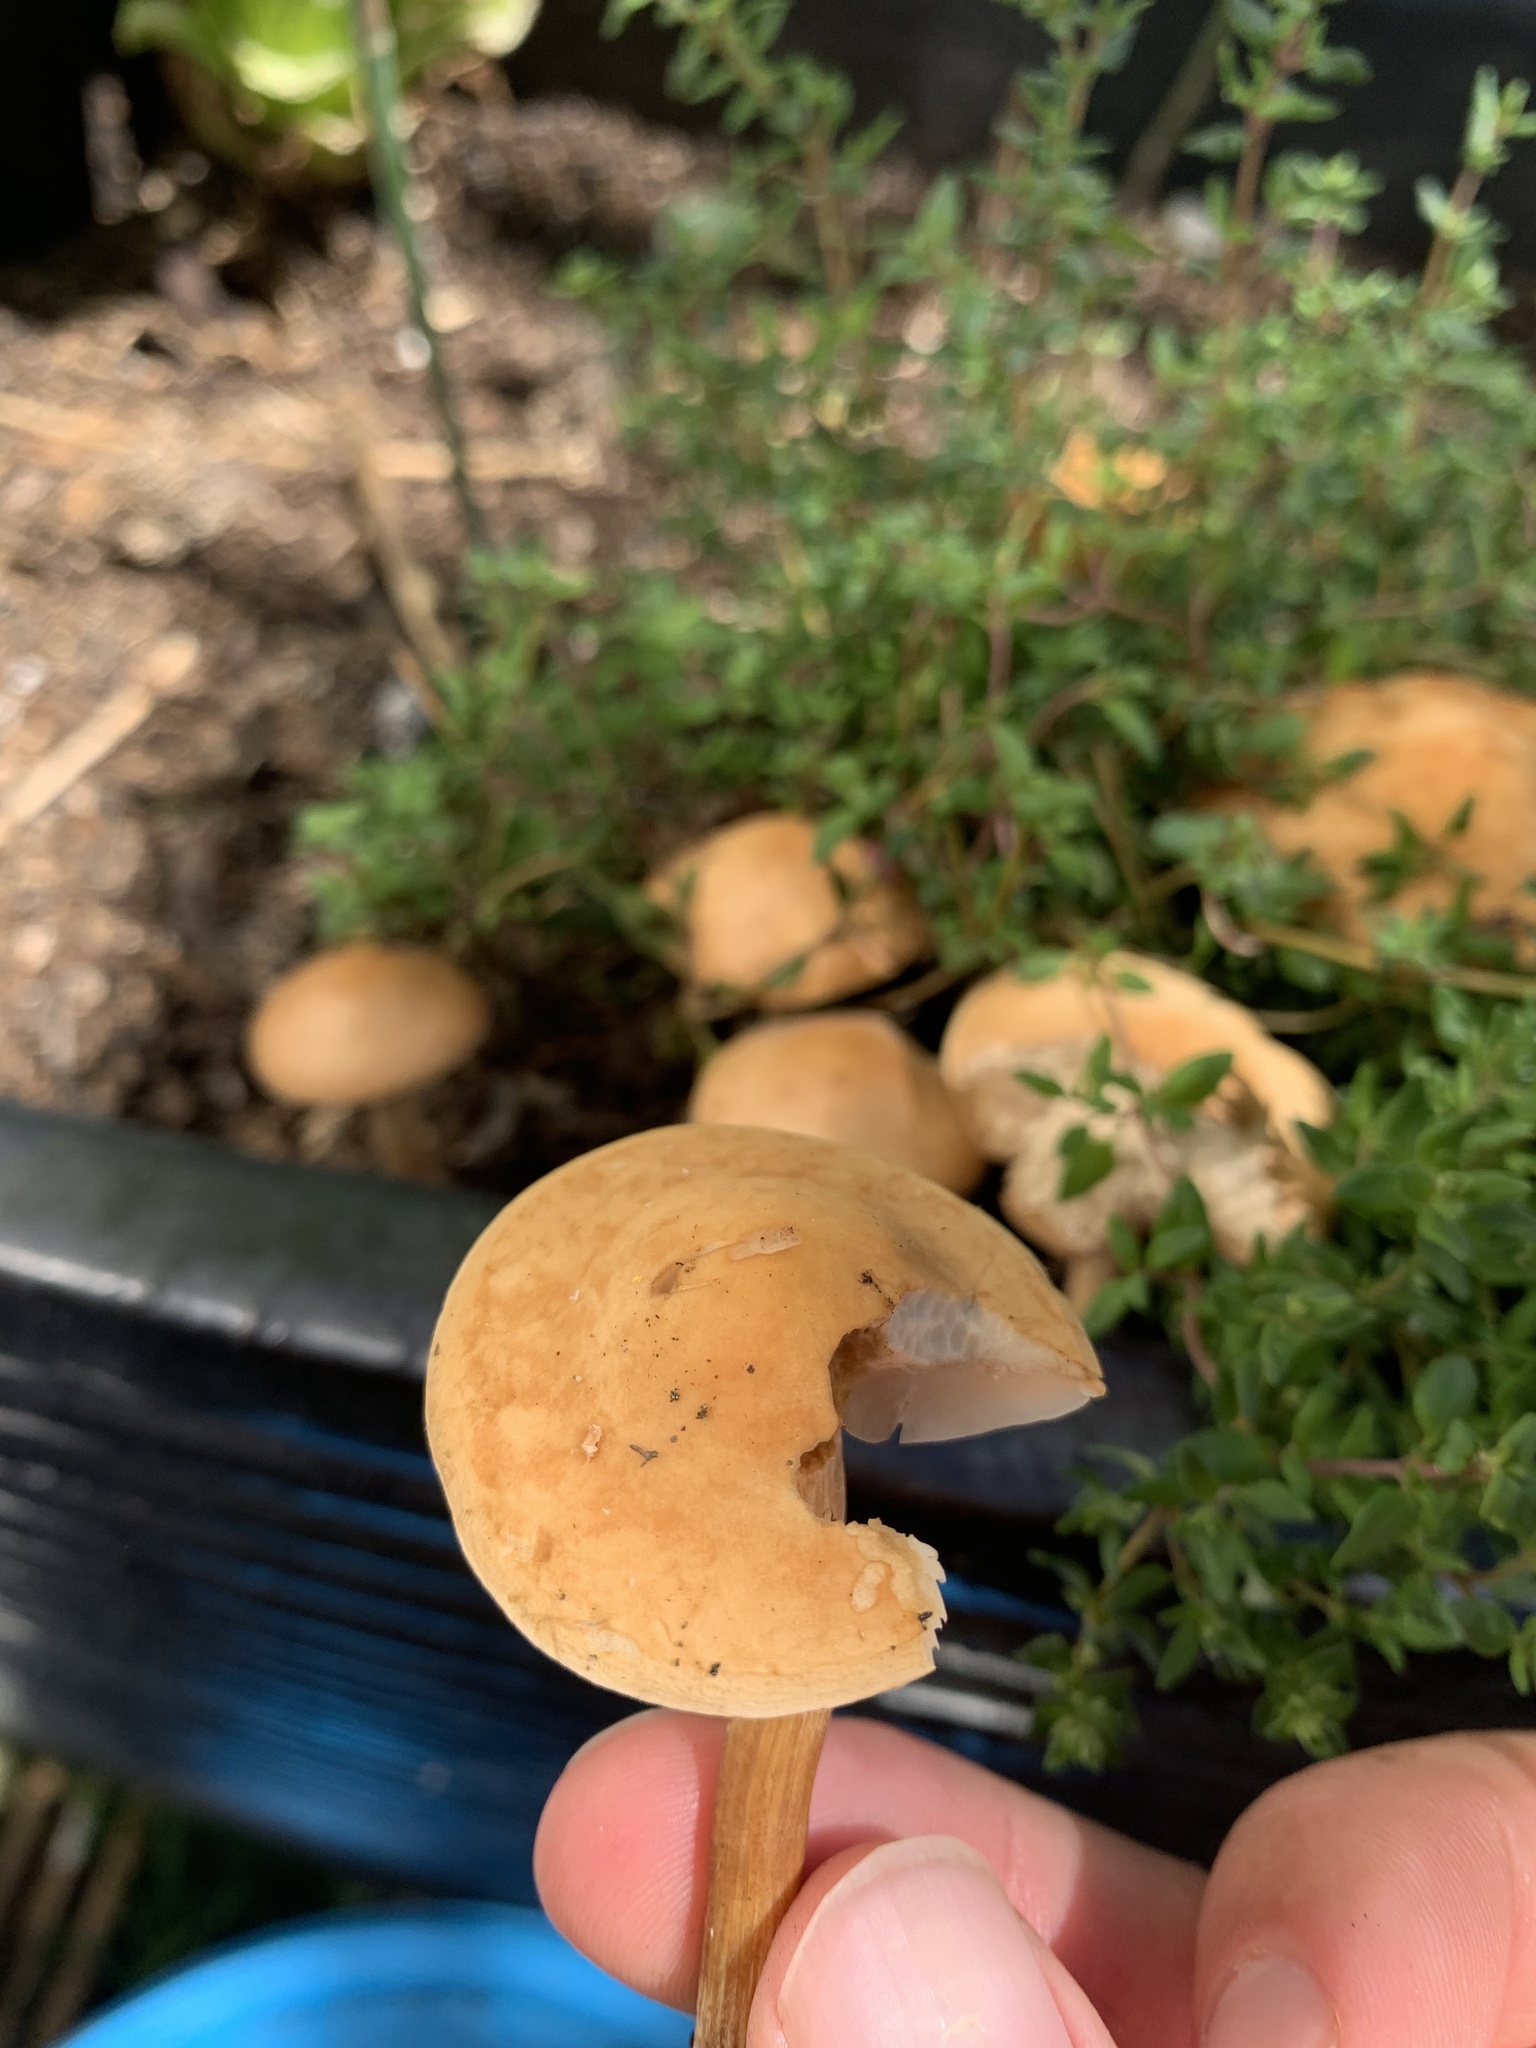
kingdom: Fungi
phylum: Basidiomycota
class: Agaricomycetes
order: Agaricales
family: Strophariaceae
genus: Agrocybe
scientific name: Agrocybe putaminum
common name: Mulch fieldcap
